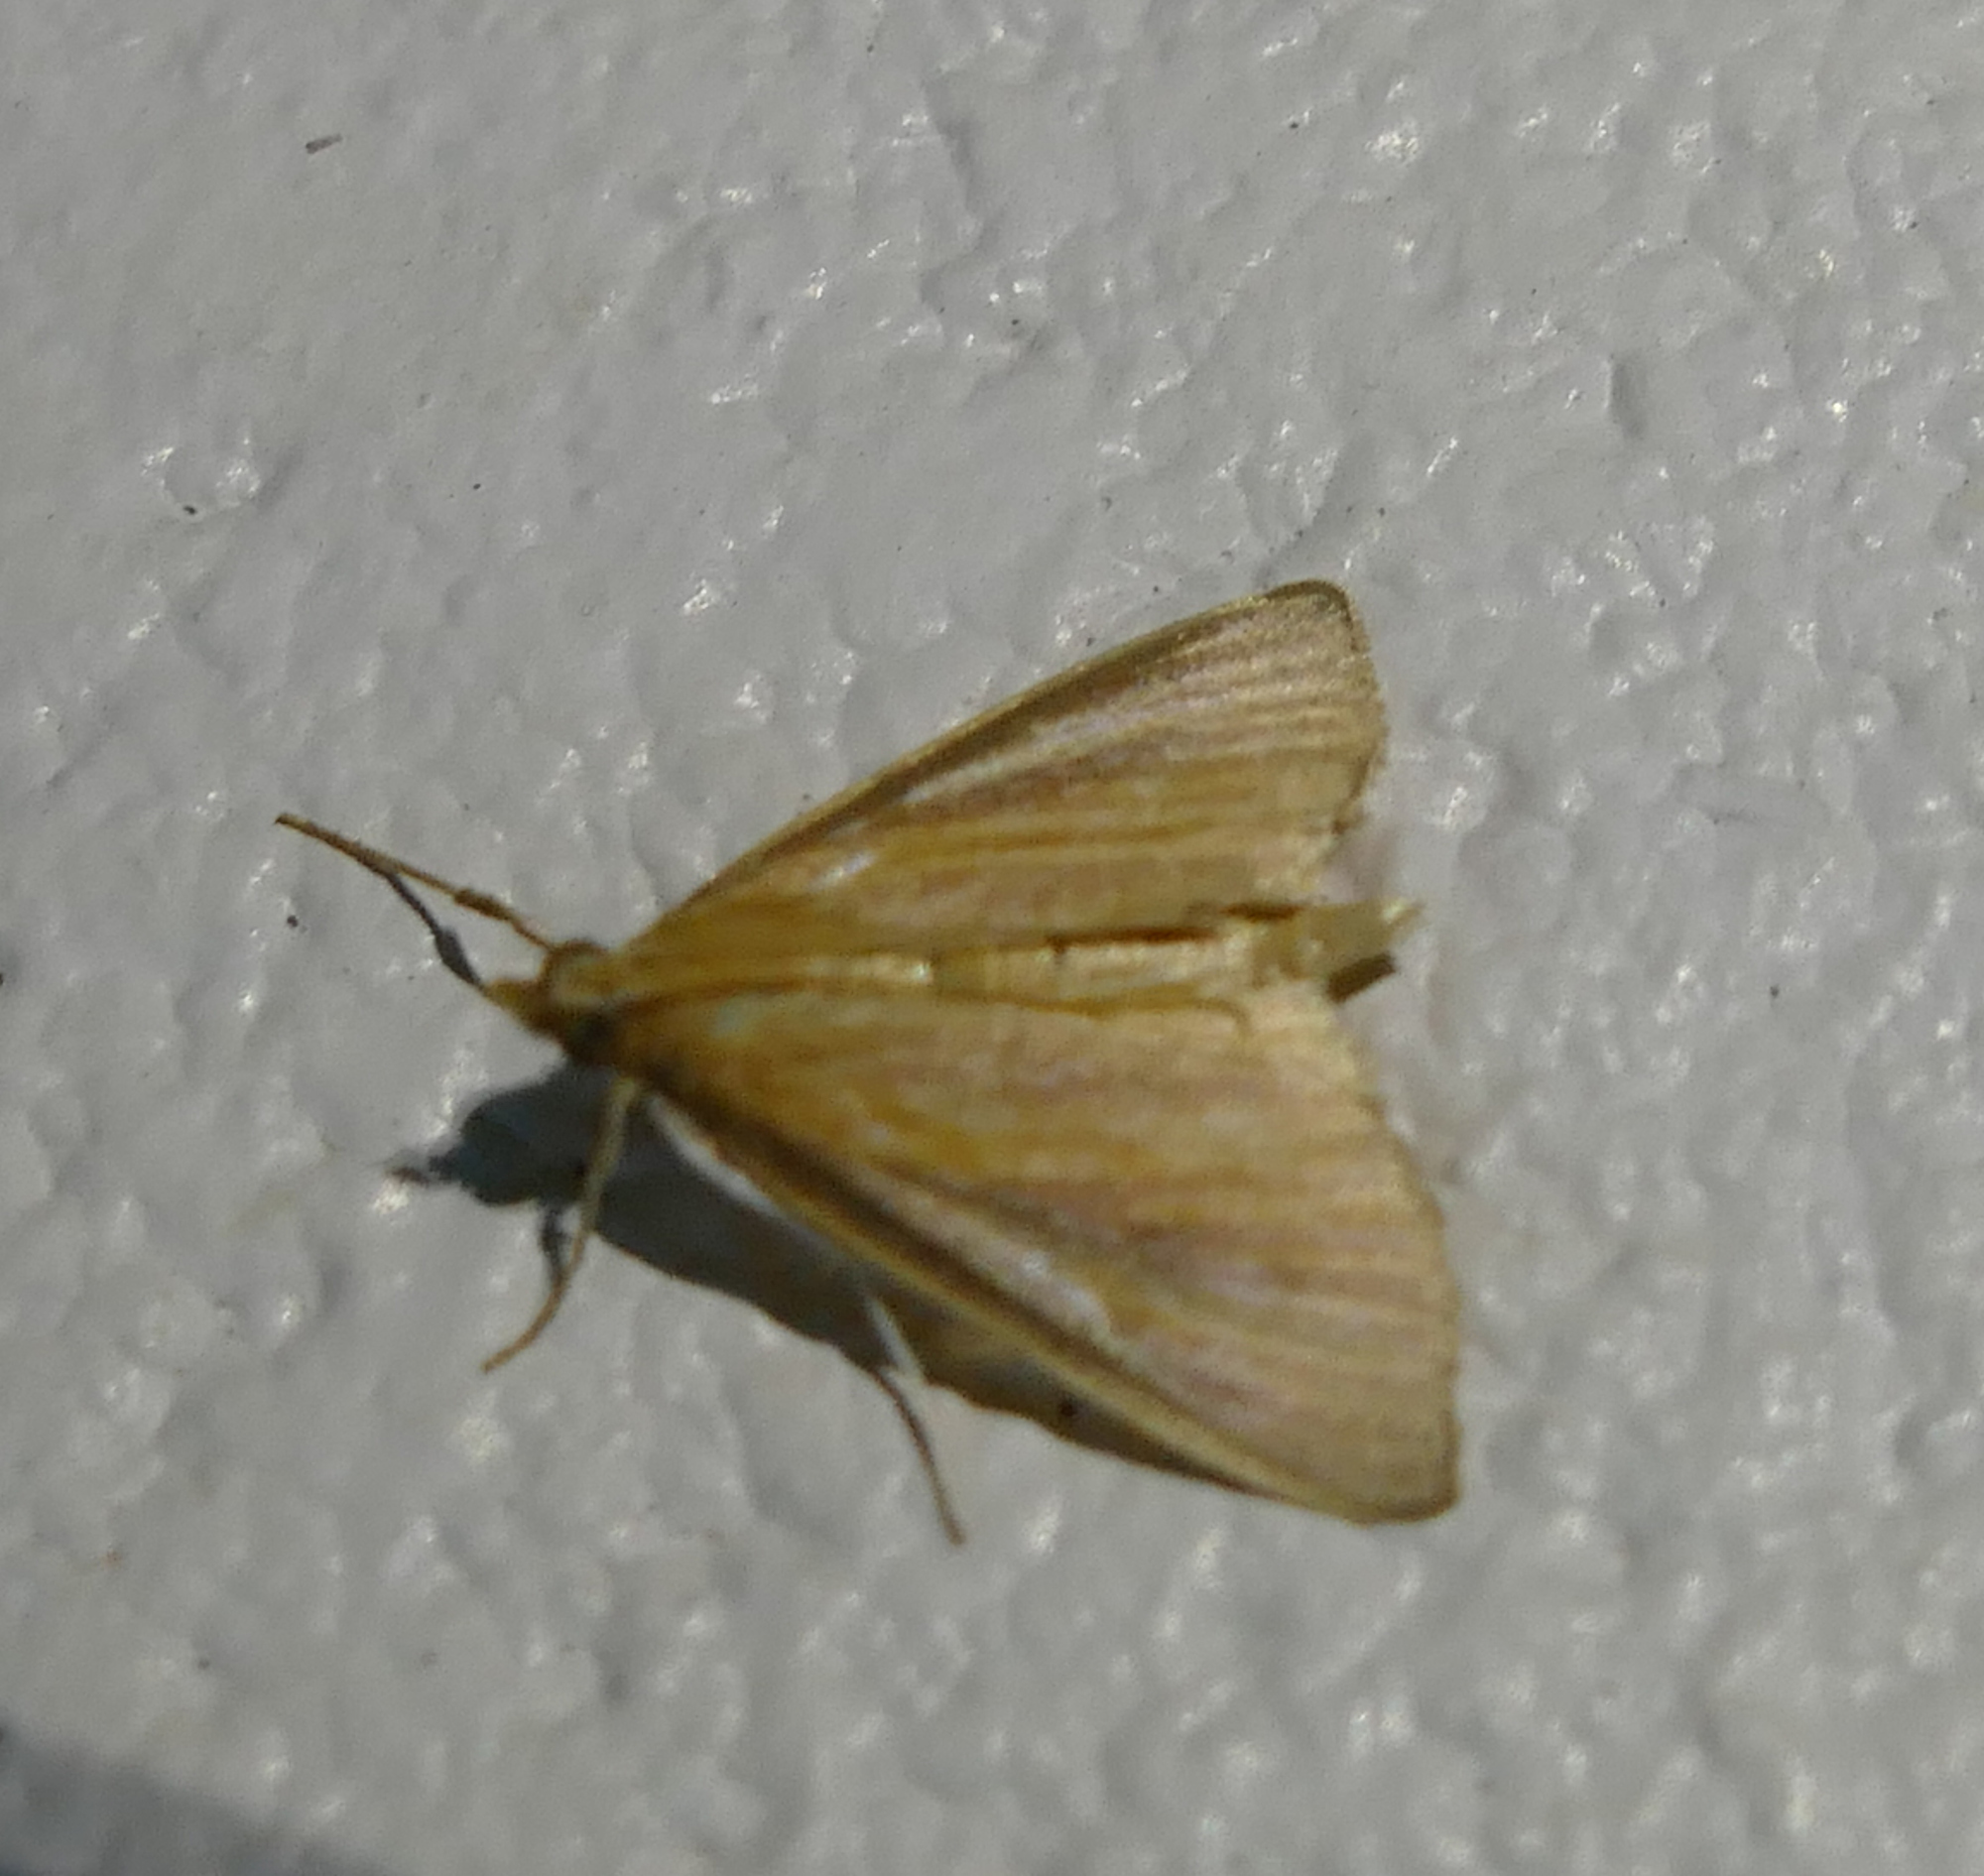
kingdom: Animalia
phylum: Arthropoda
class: Insecta
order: Lepidoptera
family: Crambidae
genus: Nascia
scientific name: Nascia acutellus
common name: Streaked orange moth
